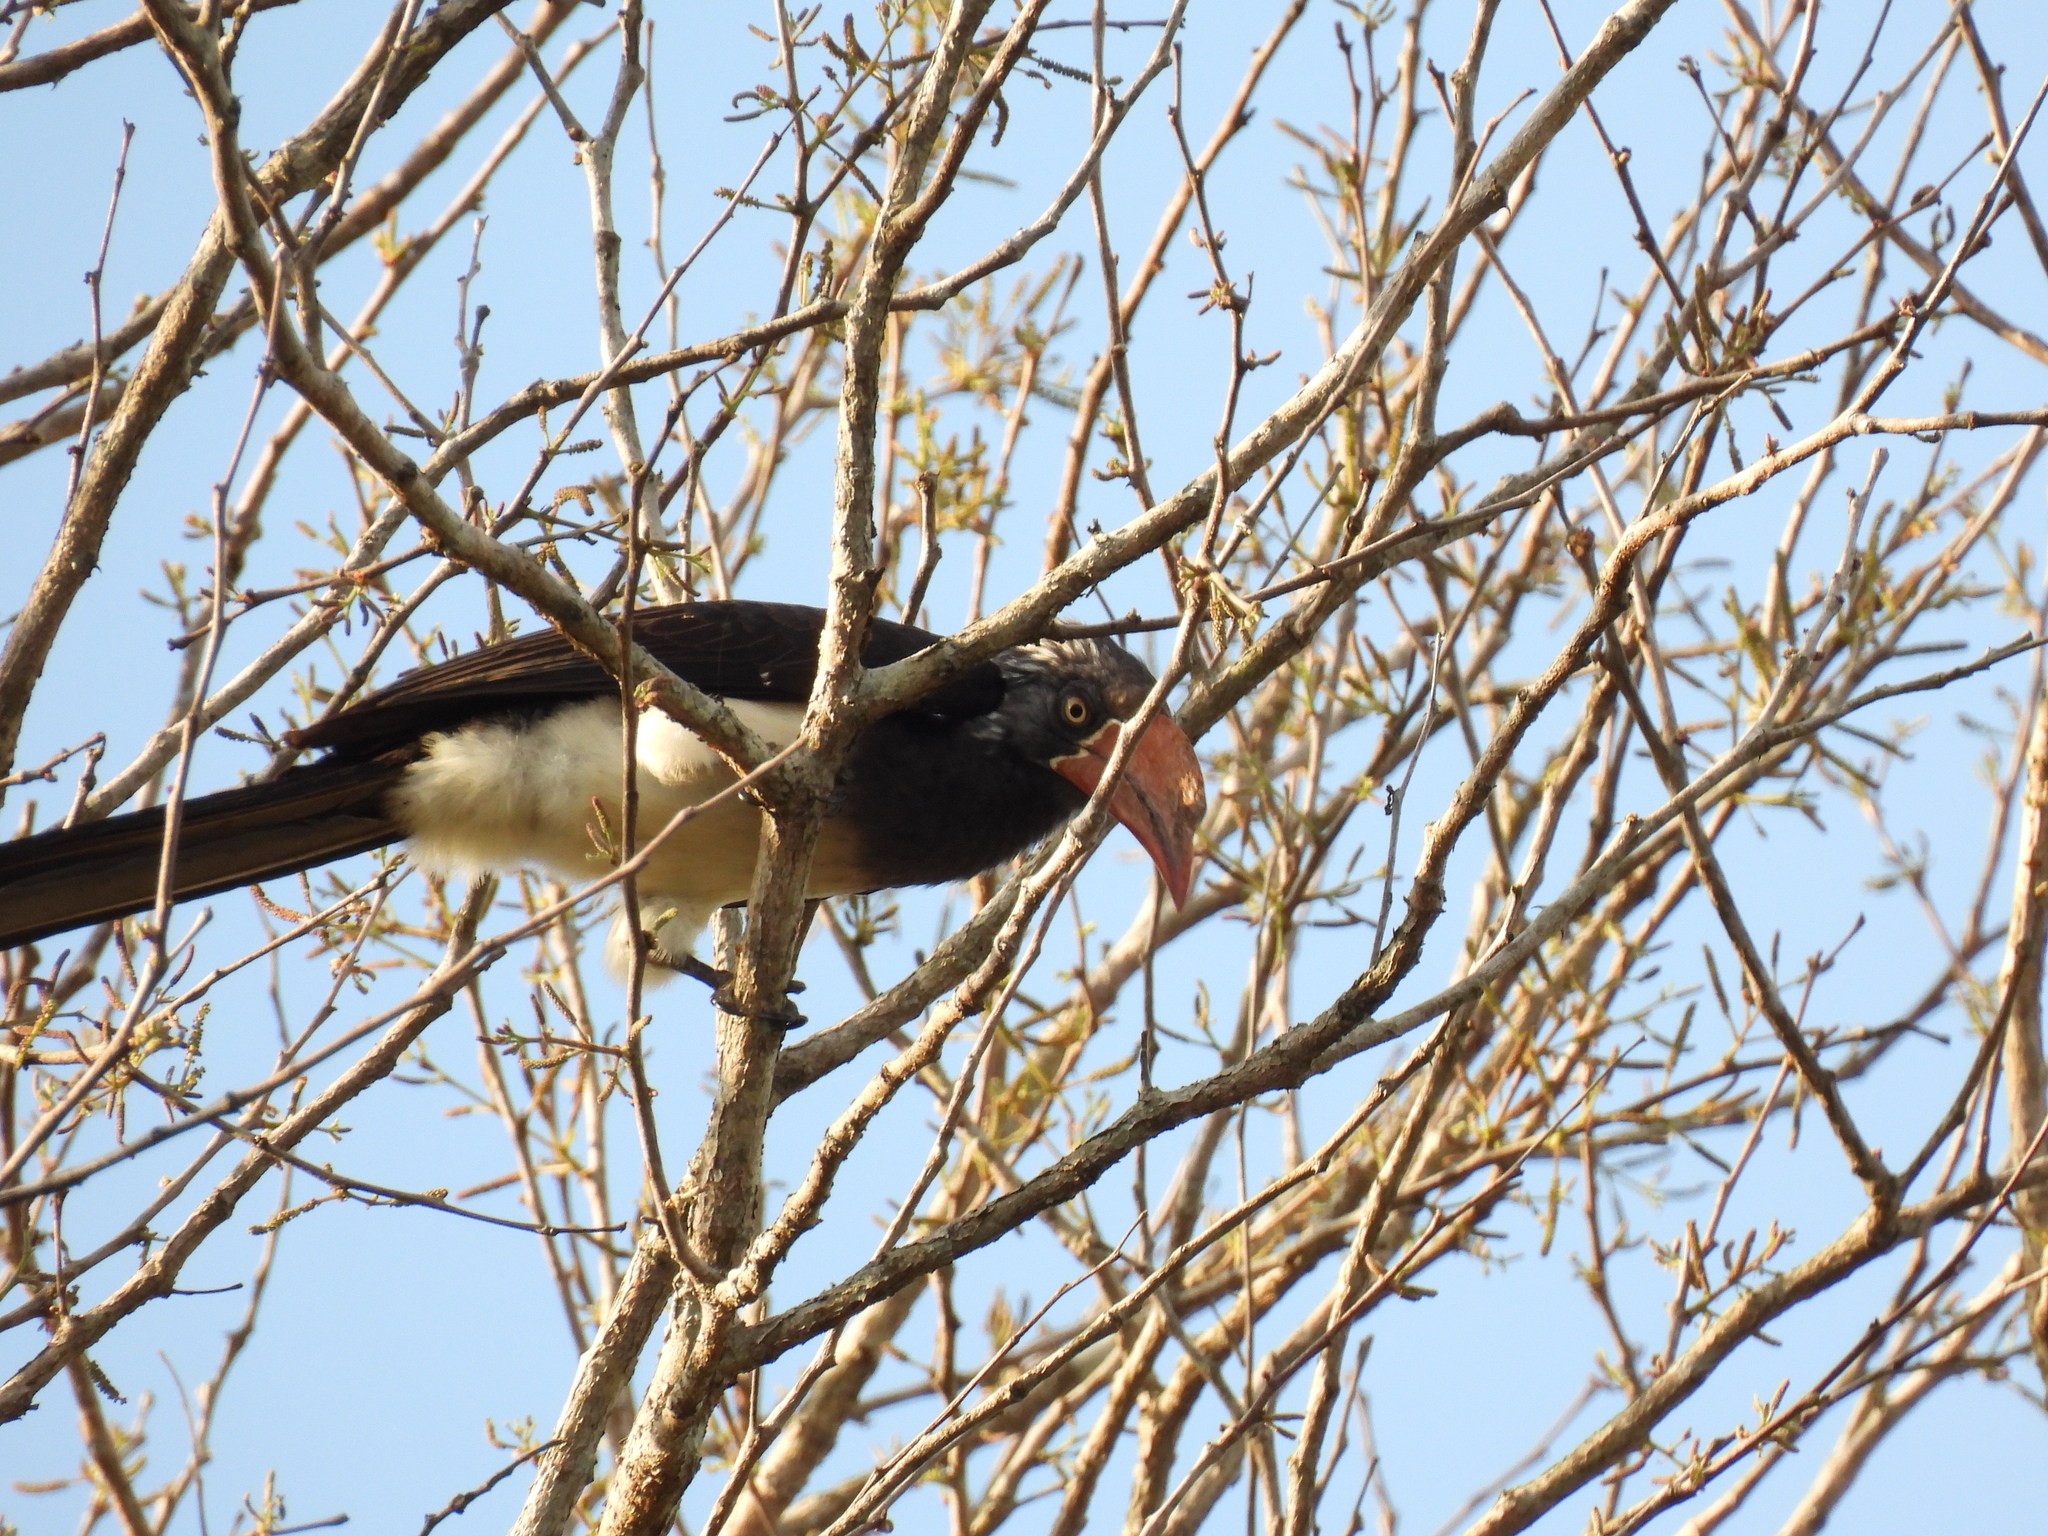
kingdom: Animalia
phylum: Chordata
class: Aves
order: Bucerotiformes
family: Bucerotidae
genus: Lophoceros
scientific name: Lophoceros alboterminatus
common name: Crowned hornbill
